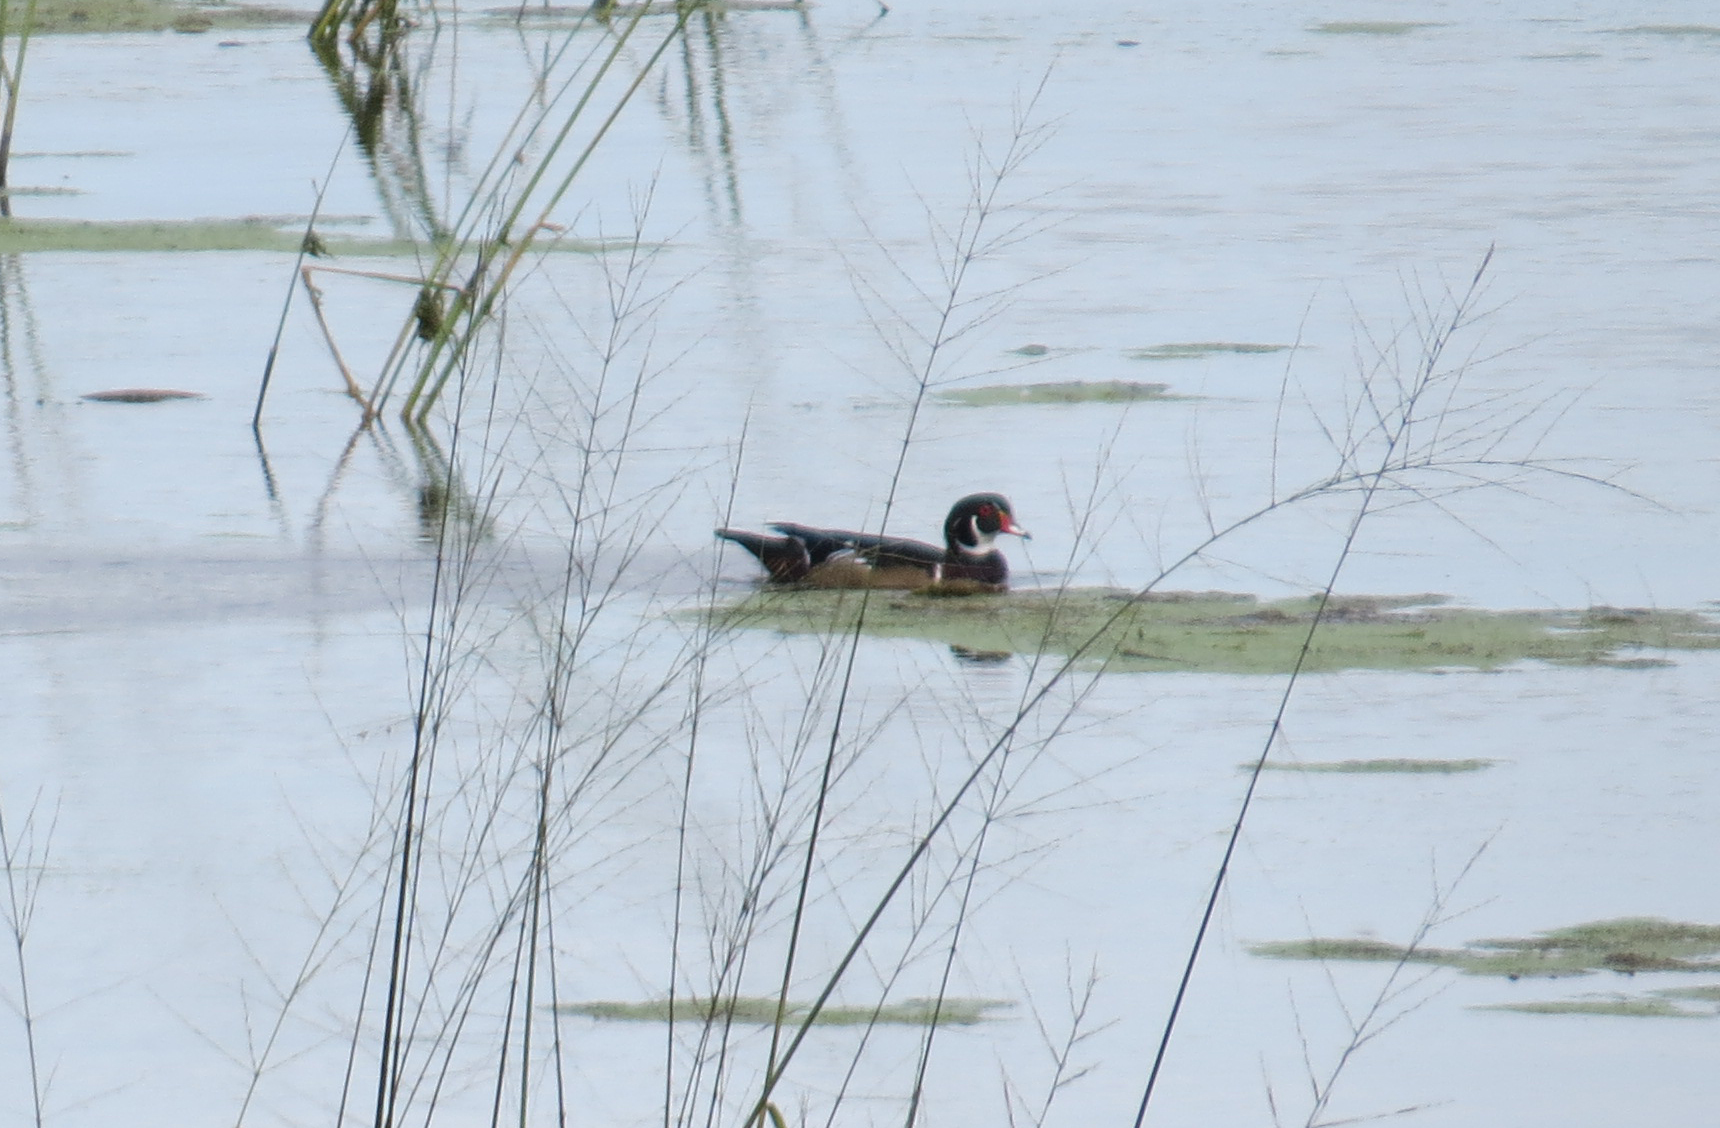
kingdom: Animalia
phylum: Chordata
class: Aves
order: Anseriformes
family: Anatidae
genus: Aix
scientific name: Aix sponsa
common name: Wood duck
